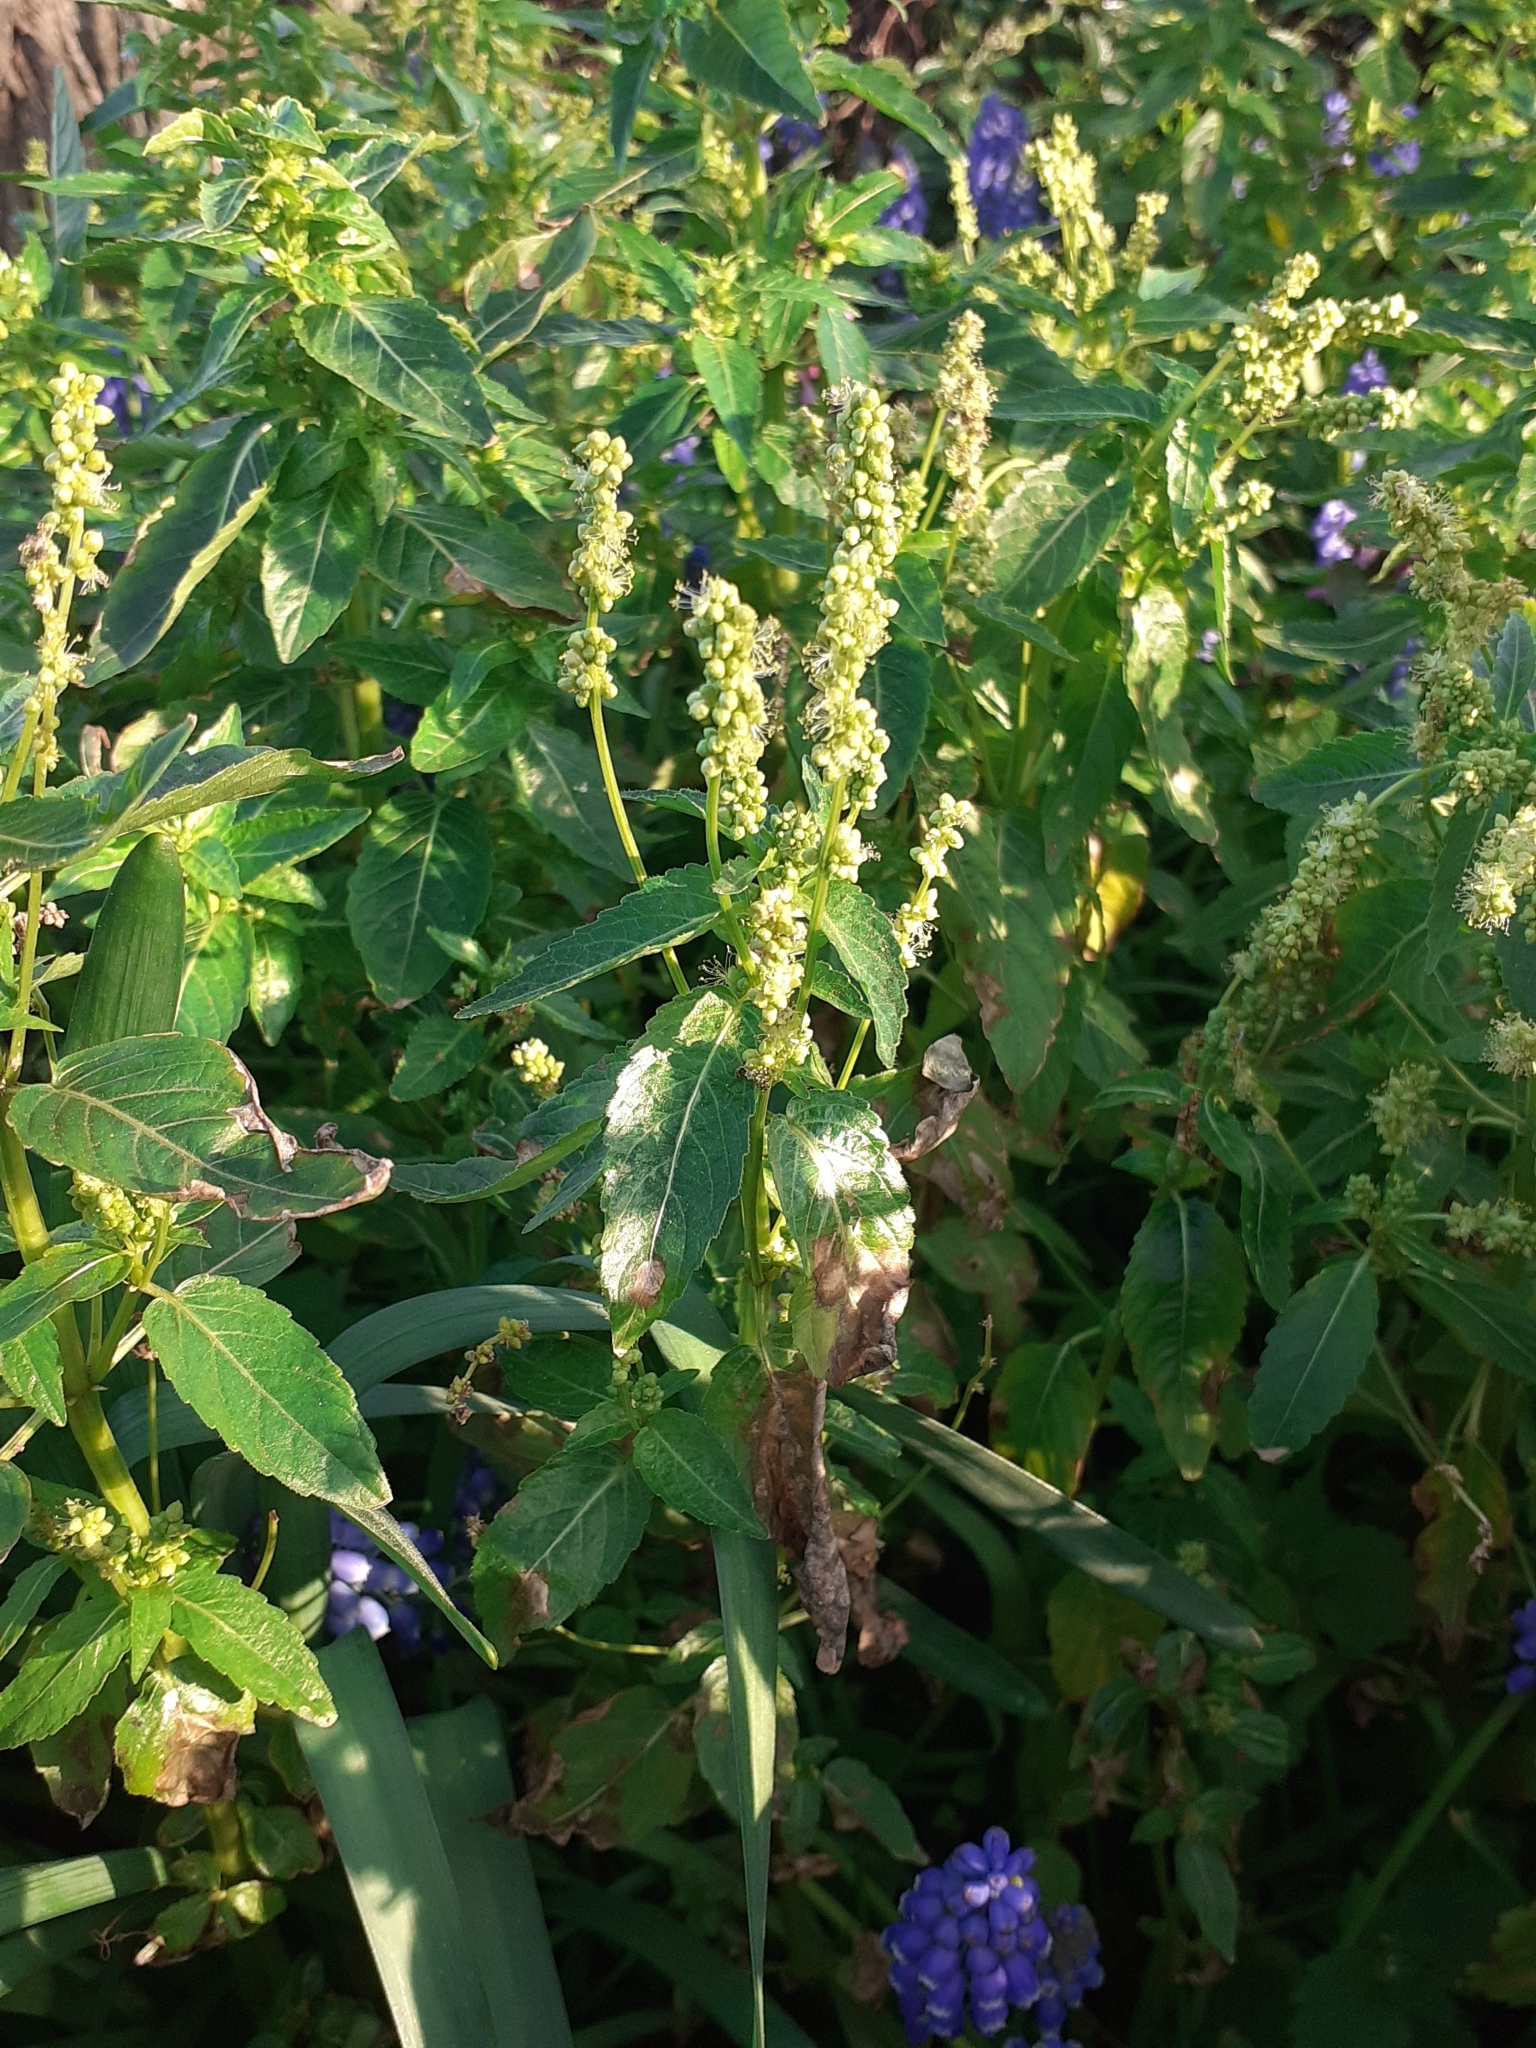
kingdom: Plantae
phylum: Tracheophyta
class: Magnoliopsida
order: Malpighiales
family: Euphorbiaceae
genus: Mercurialis
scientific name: Mercurialis annua
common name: Annual mercury
